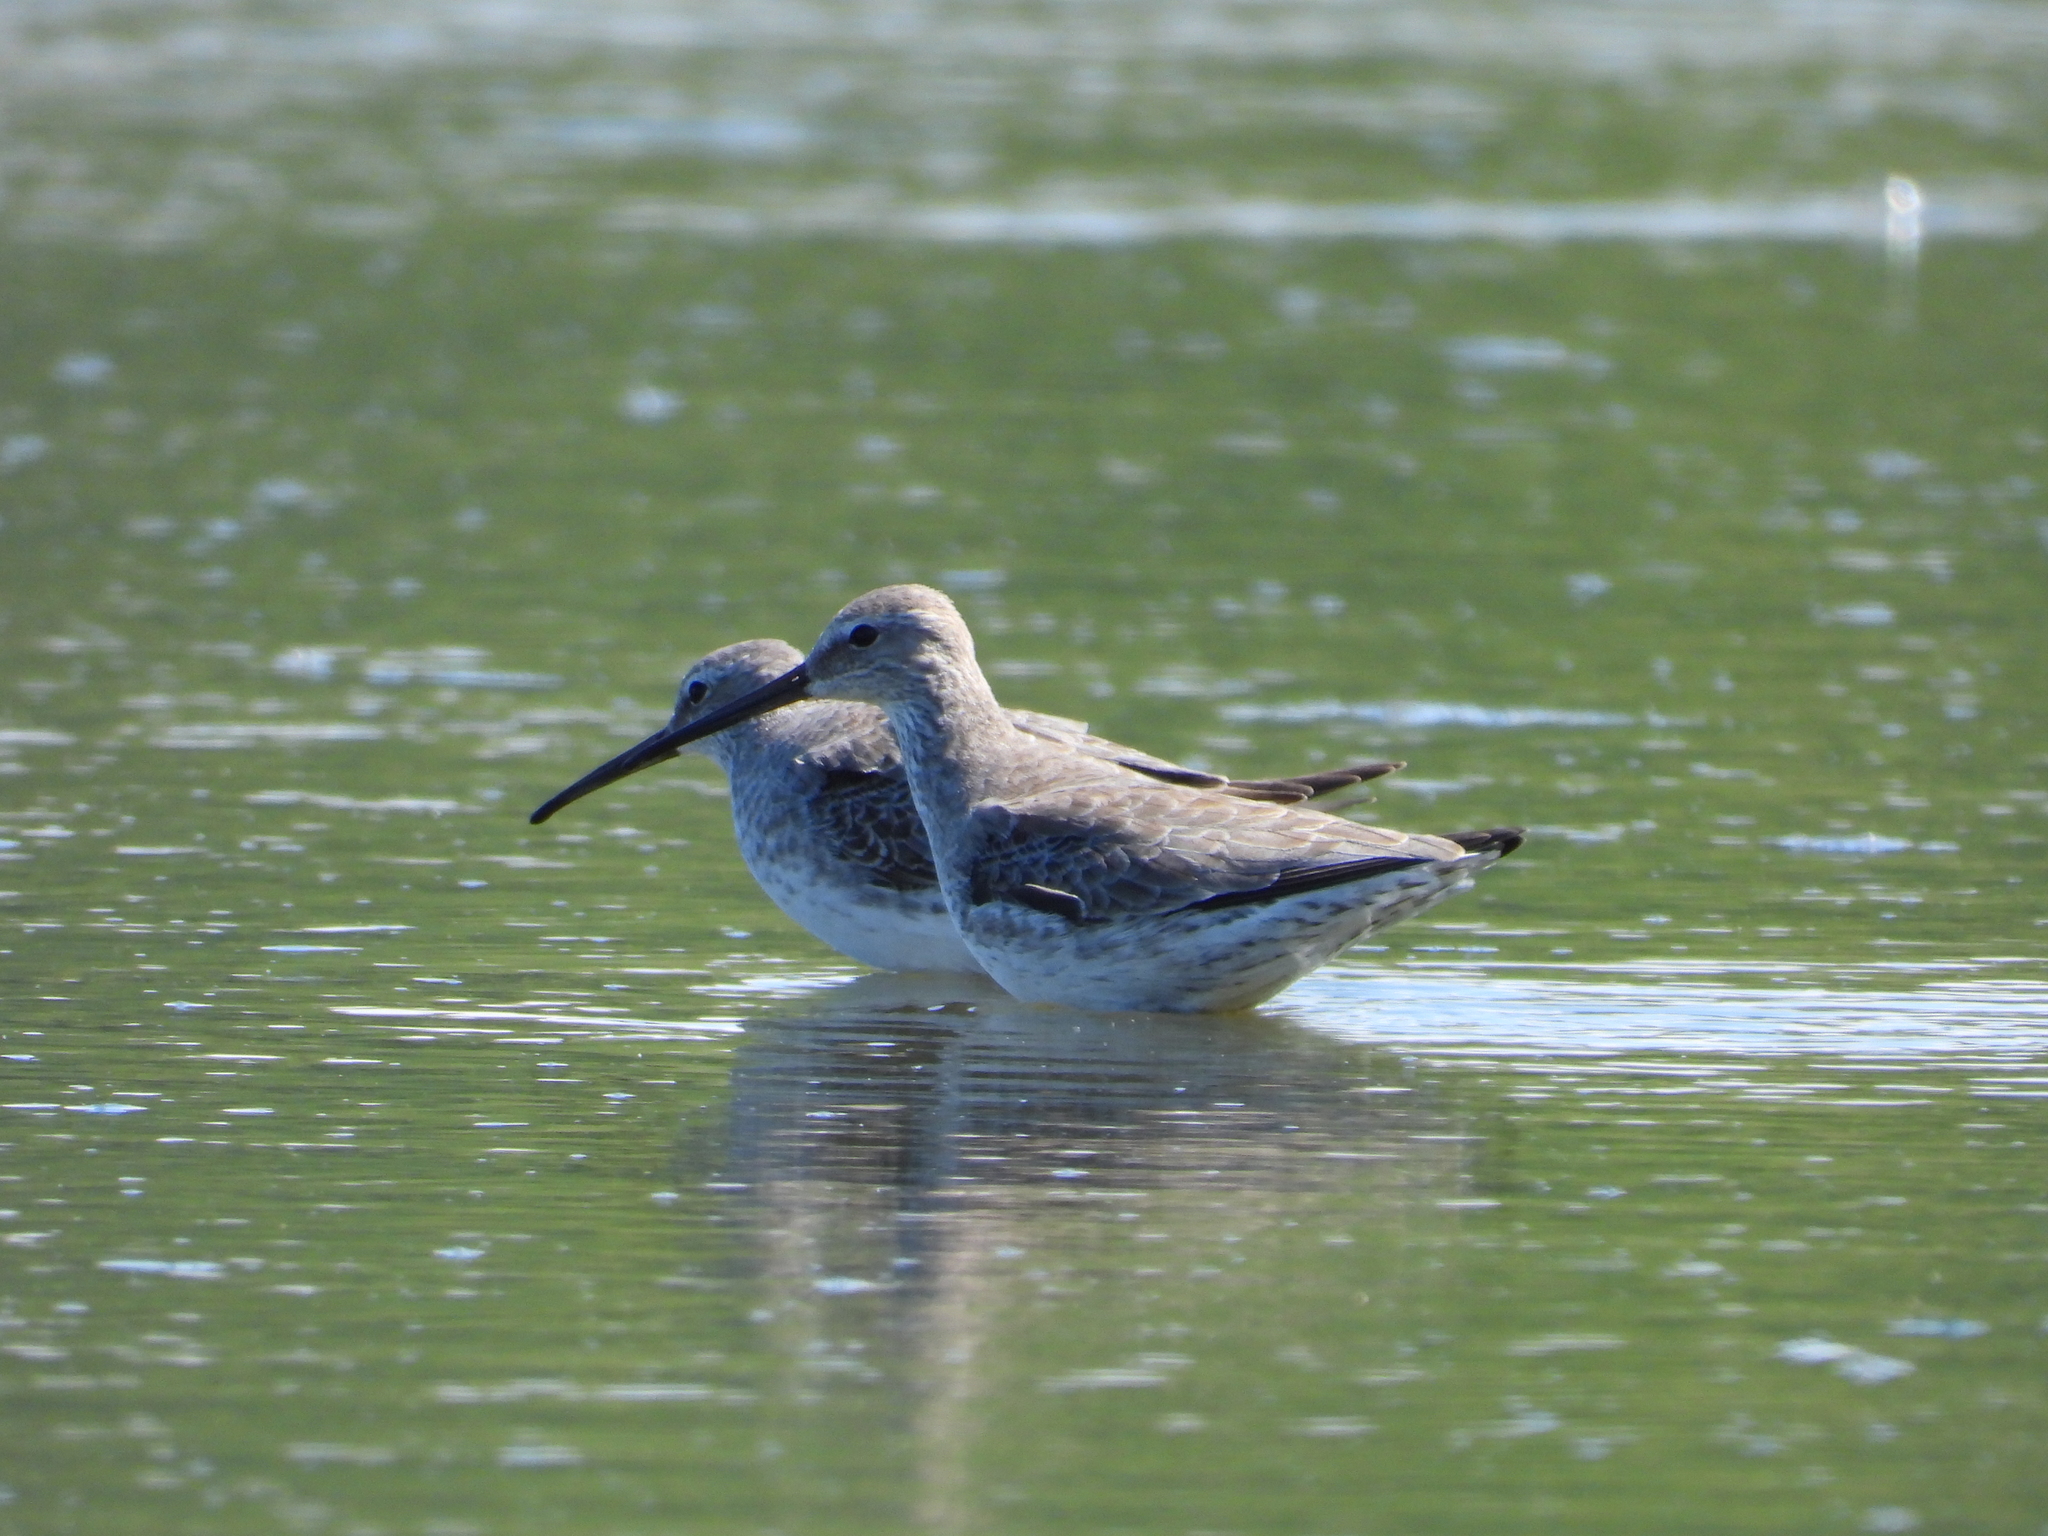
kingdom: Animalia
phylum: Chordata
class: Aves
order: Charadriiformes
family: Scolopacidae
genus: Calidris
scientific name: Calidris himantopus
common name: Stilt sandpiper
